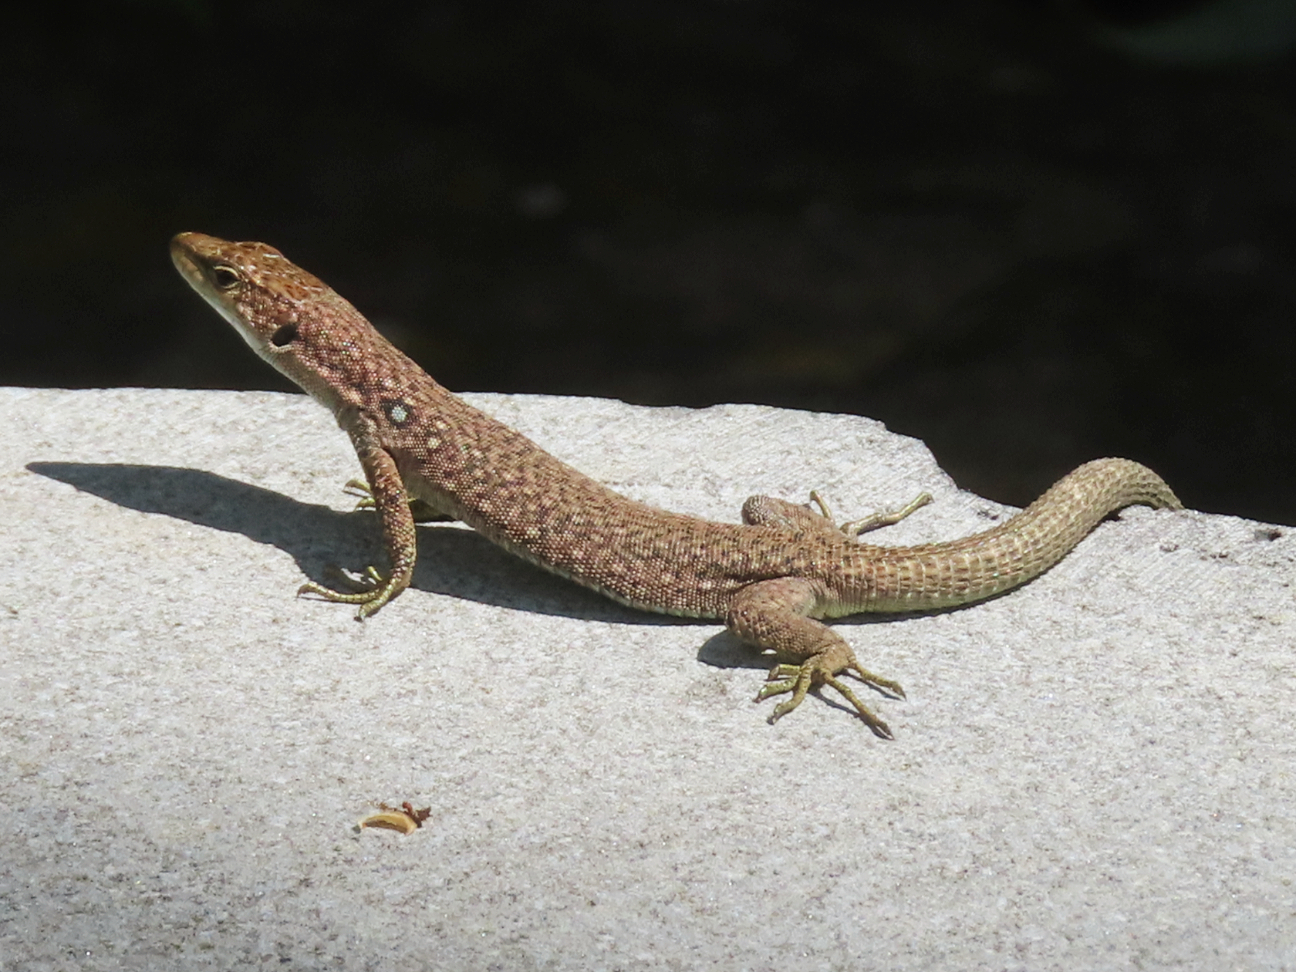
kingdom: Animalia
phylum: Chordata
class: Squamata
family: Lacertidae
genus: Darevskia
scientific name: Darevskia
